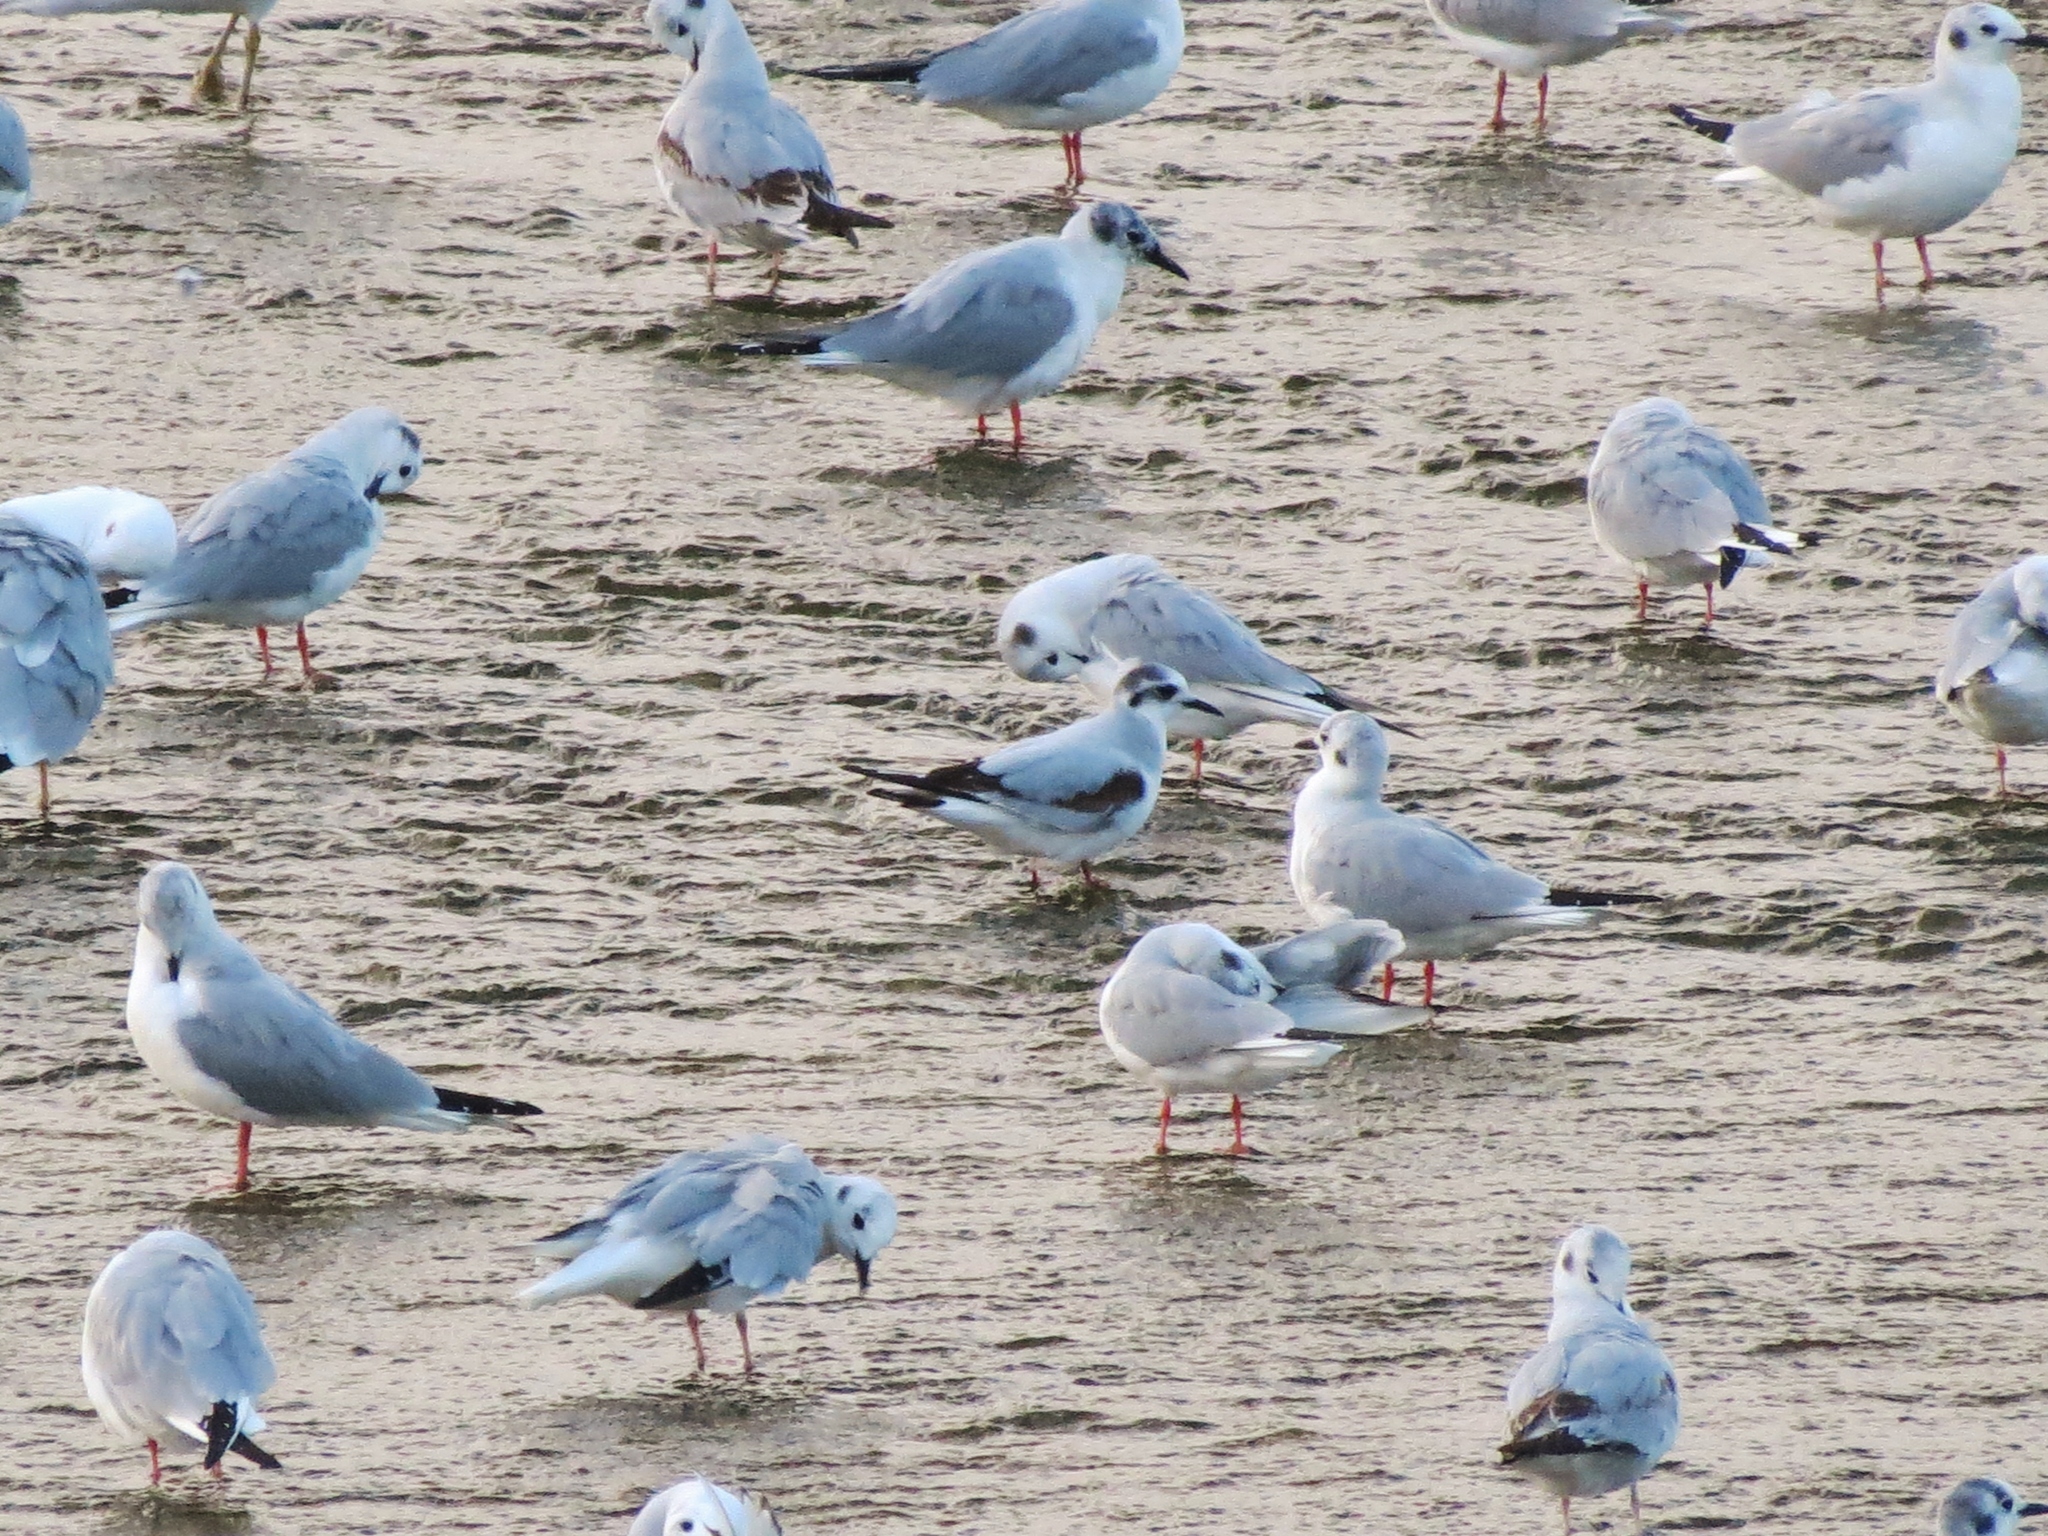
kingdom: Animalia
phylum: Chordata
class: Aves
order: Charadriiformes
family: Laridae
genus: Chroicocephalus
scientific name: Chroicocephalus philadelphia
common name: Bonaparte's gull
